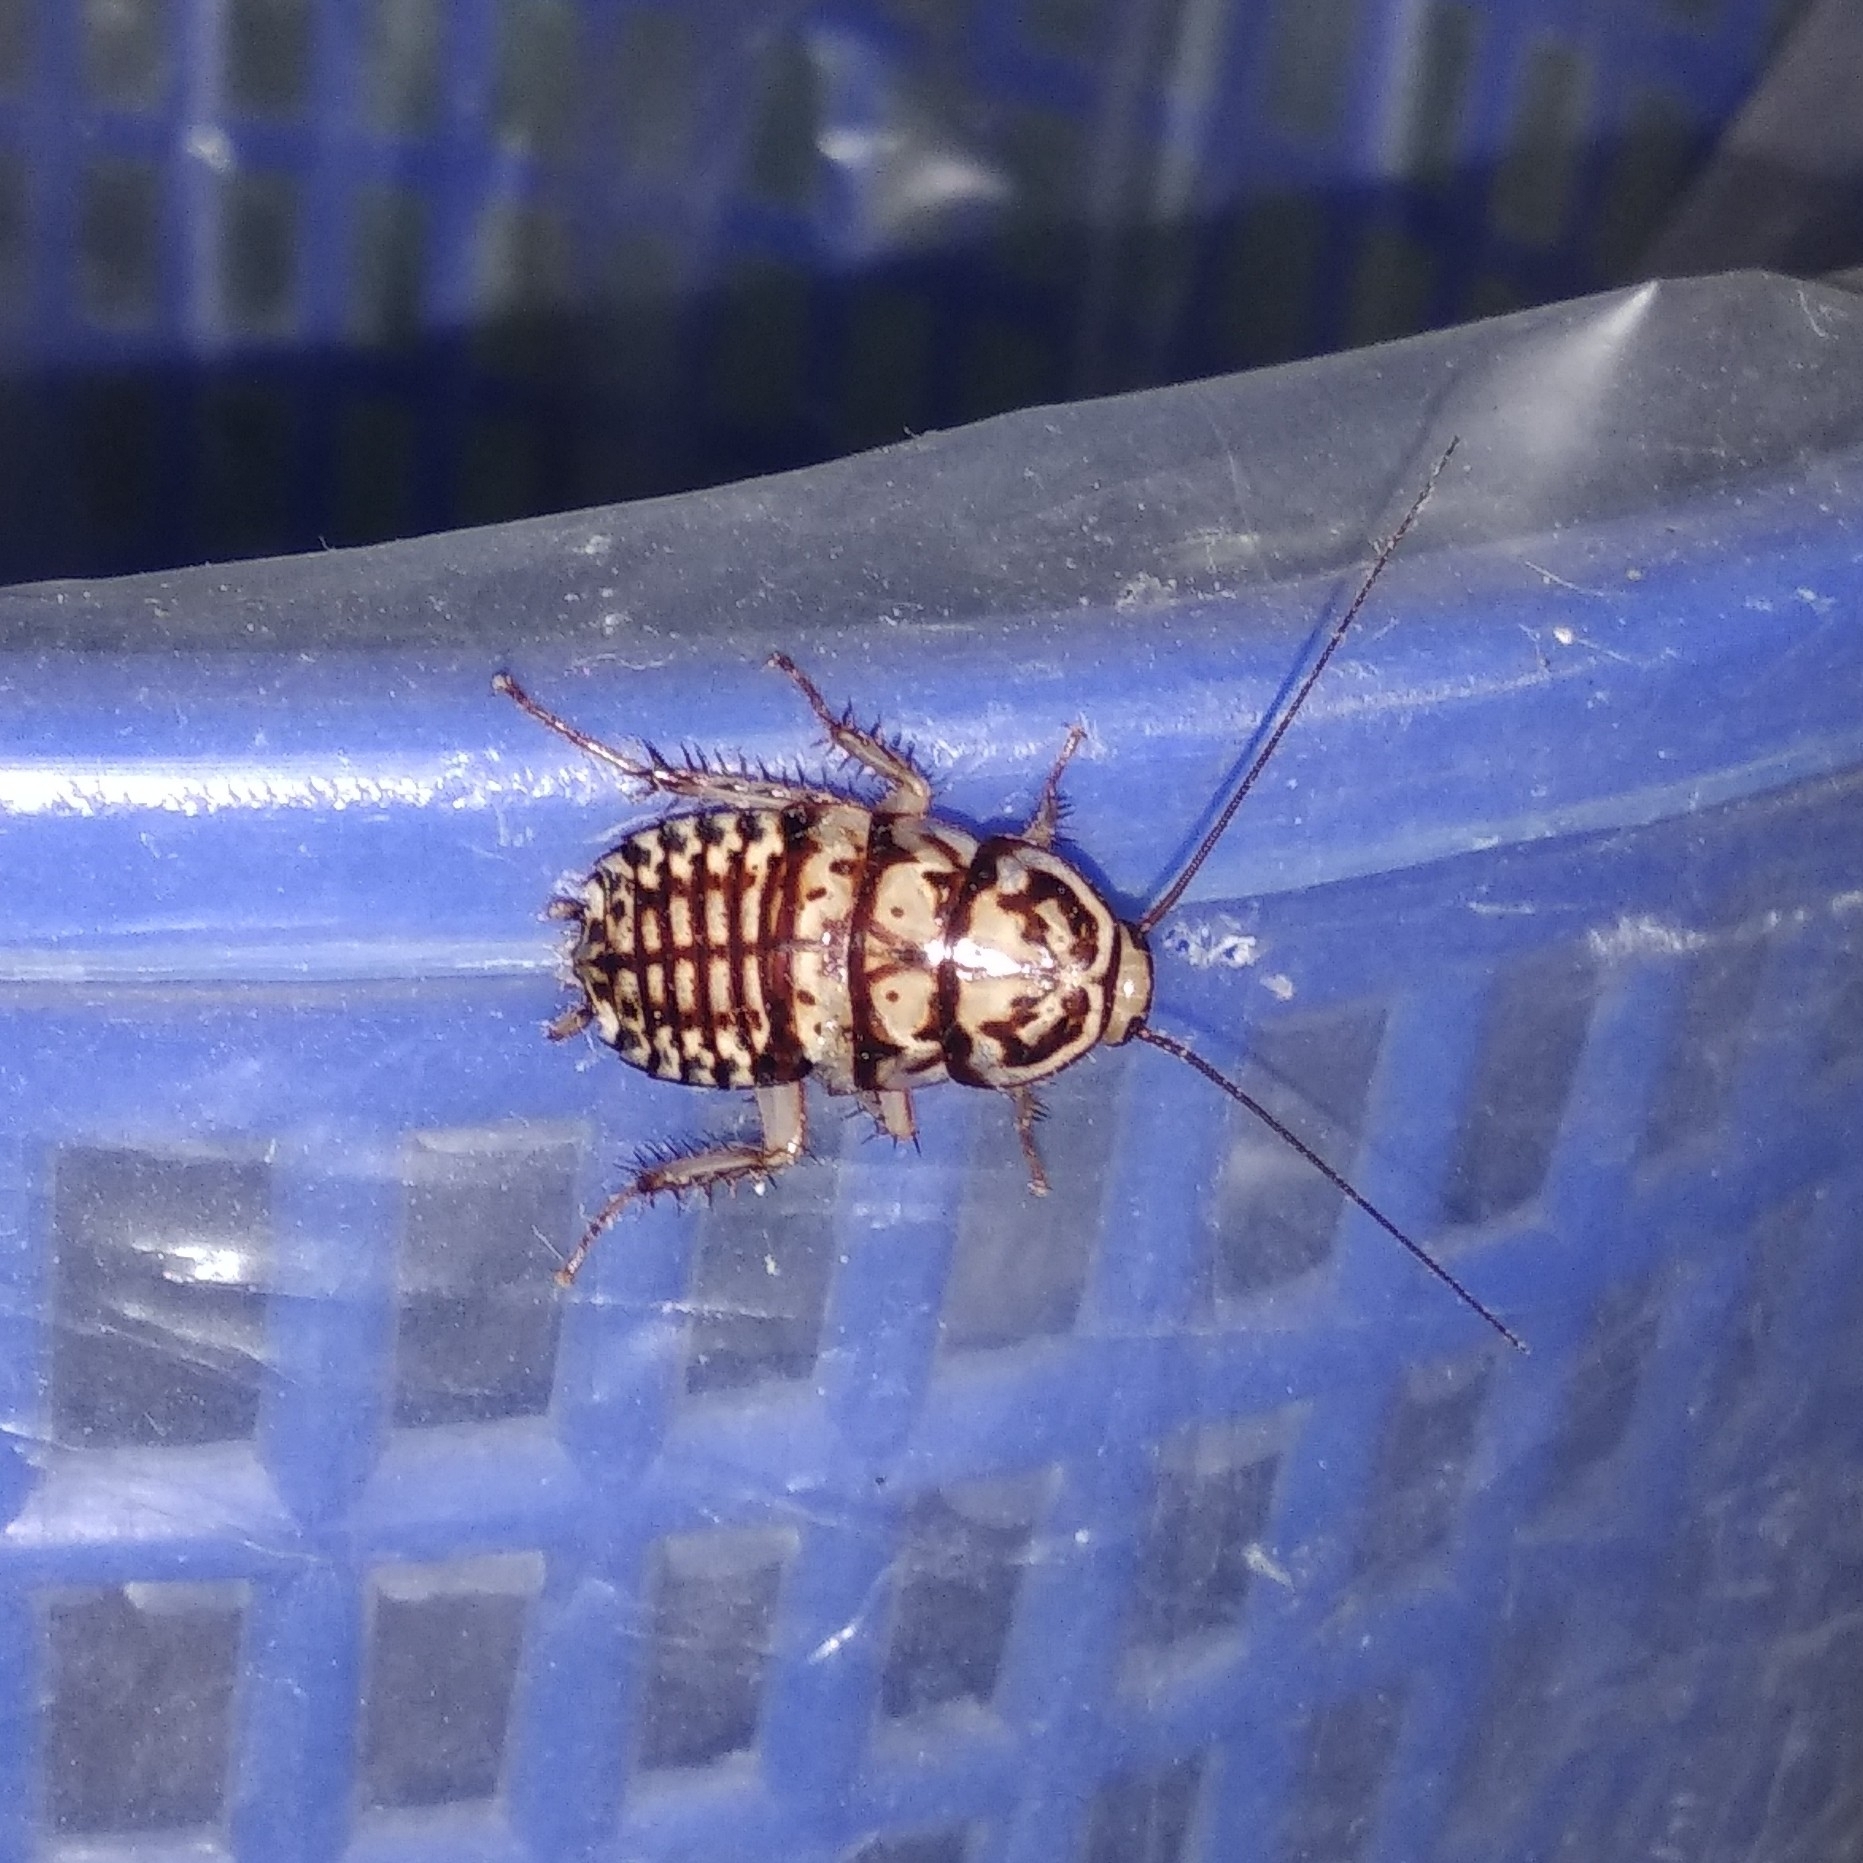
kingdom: Animalia
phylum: Arthropoda
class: Insecta
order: Blattodea
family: Blattidae
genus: Neostylopyga
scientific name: Neostylopyga rhombifolia
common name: Harlequin cockroach
